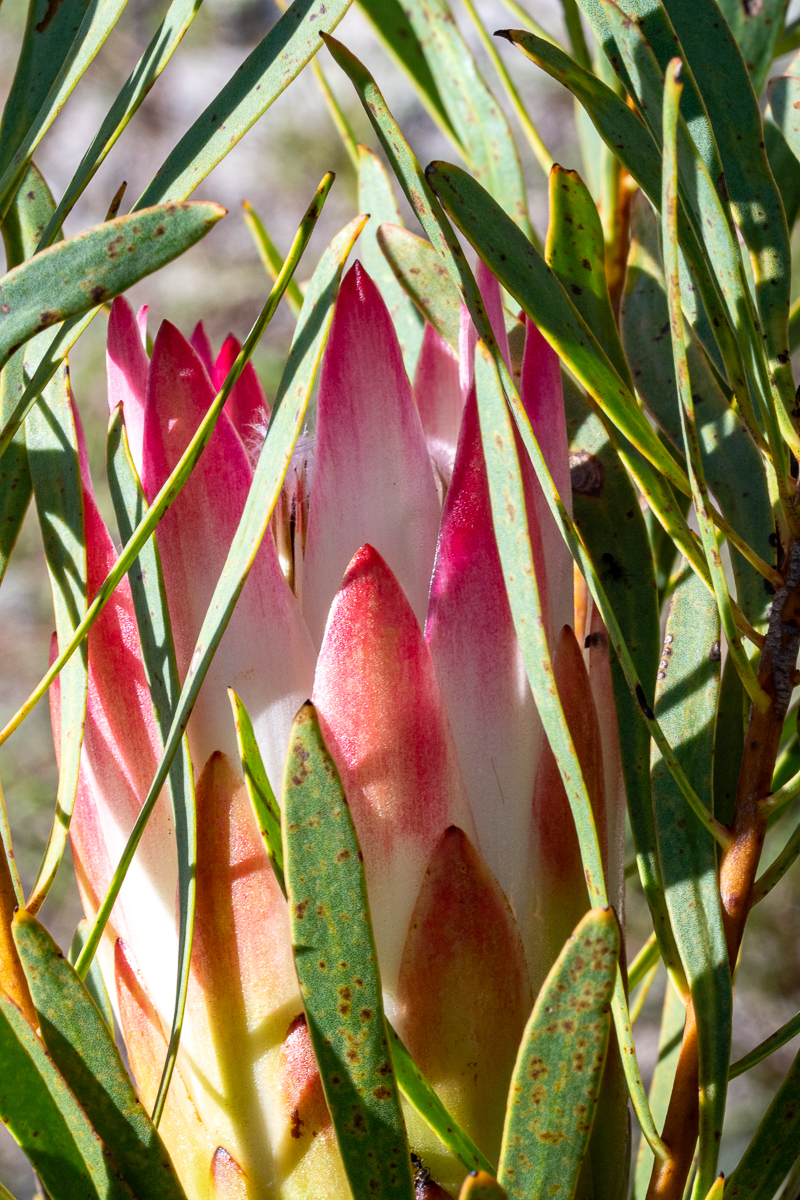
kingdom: Plantae
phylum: Tracheophyta
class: Magnoliopsida
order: Proteales
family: Proteaceae
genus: Protea
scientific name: Protea repens
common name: Sugarbush
